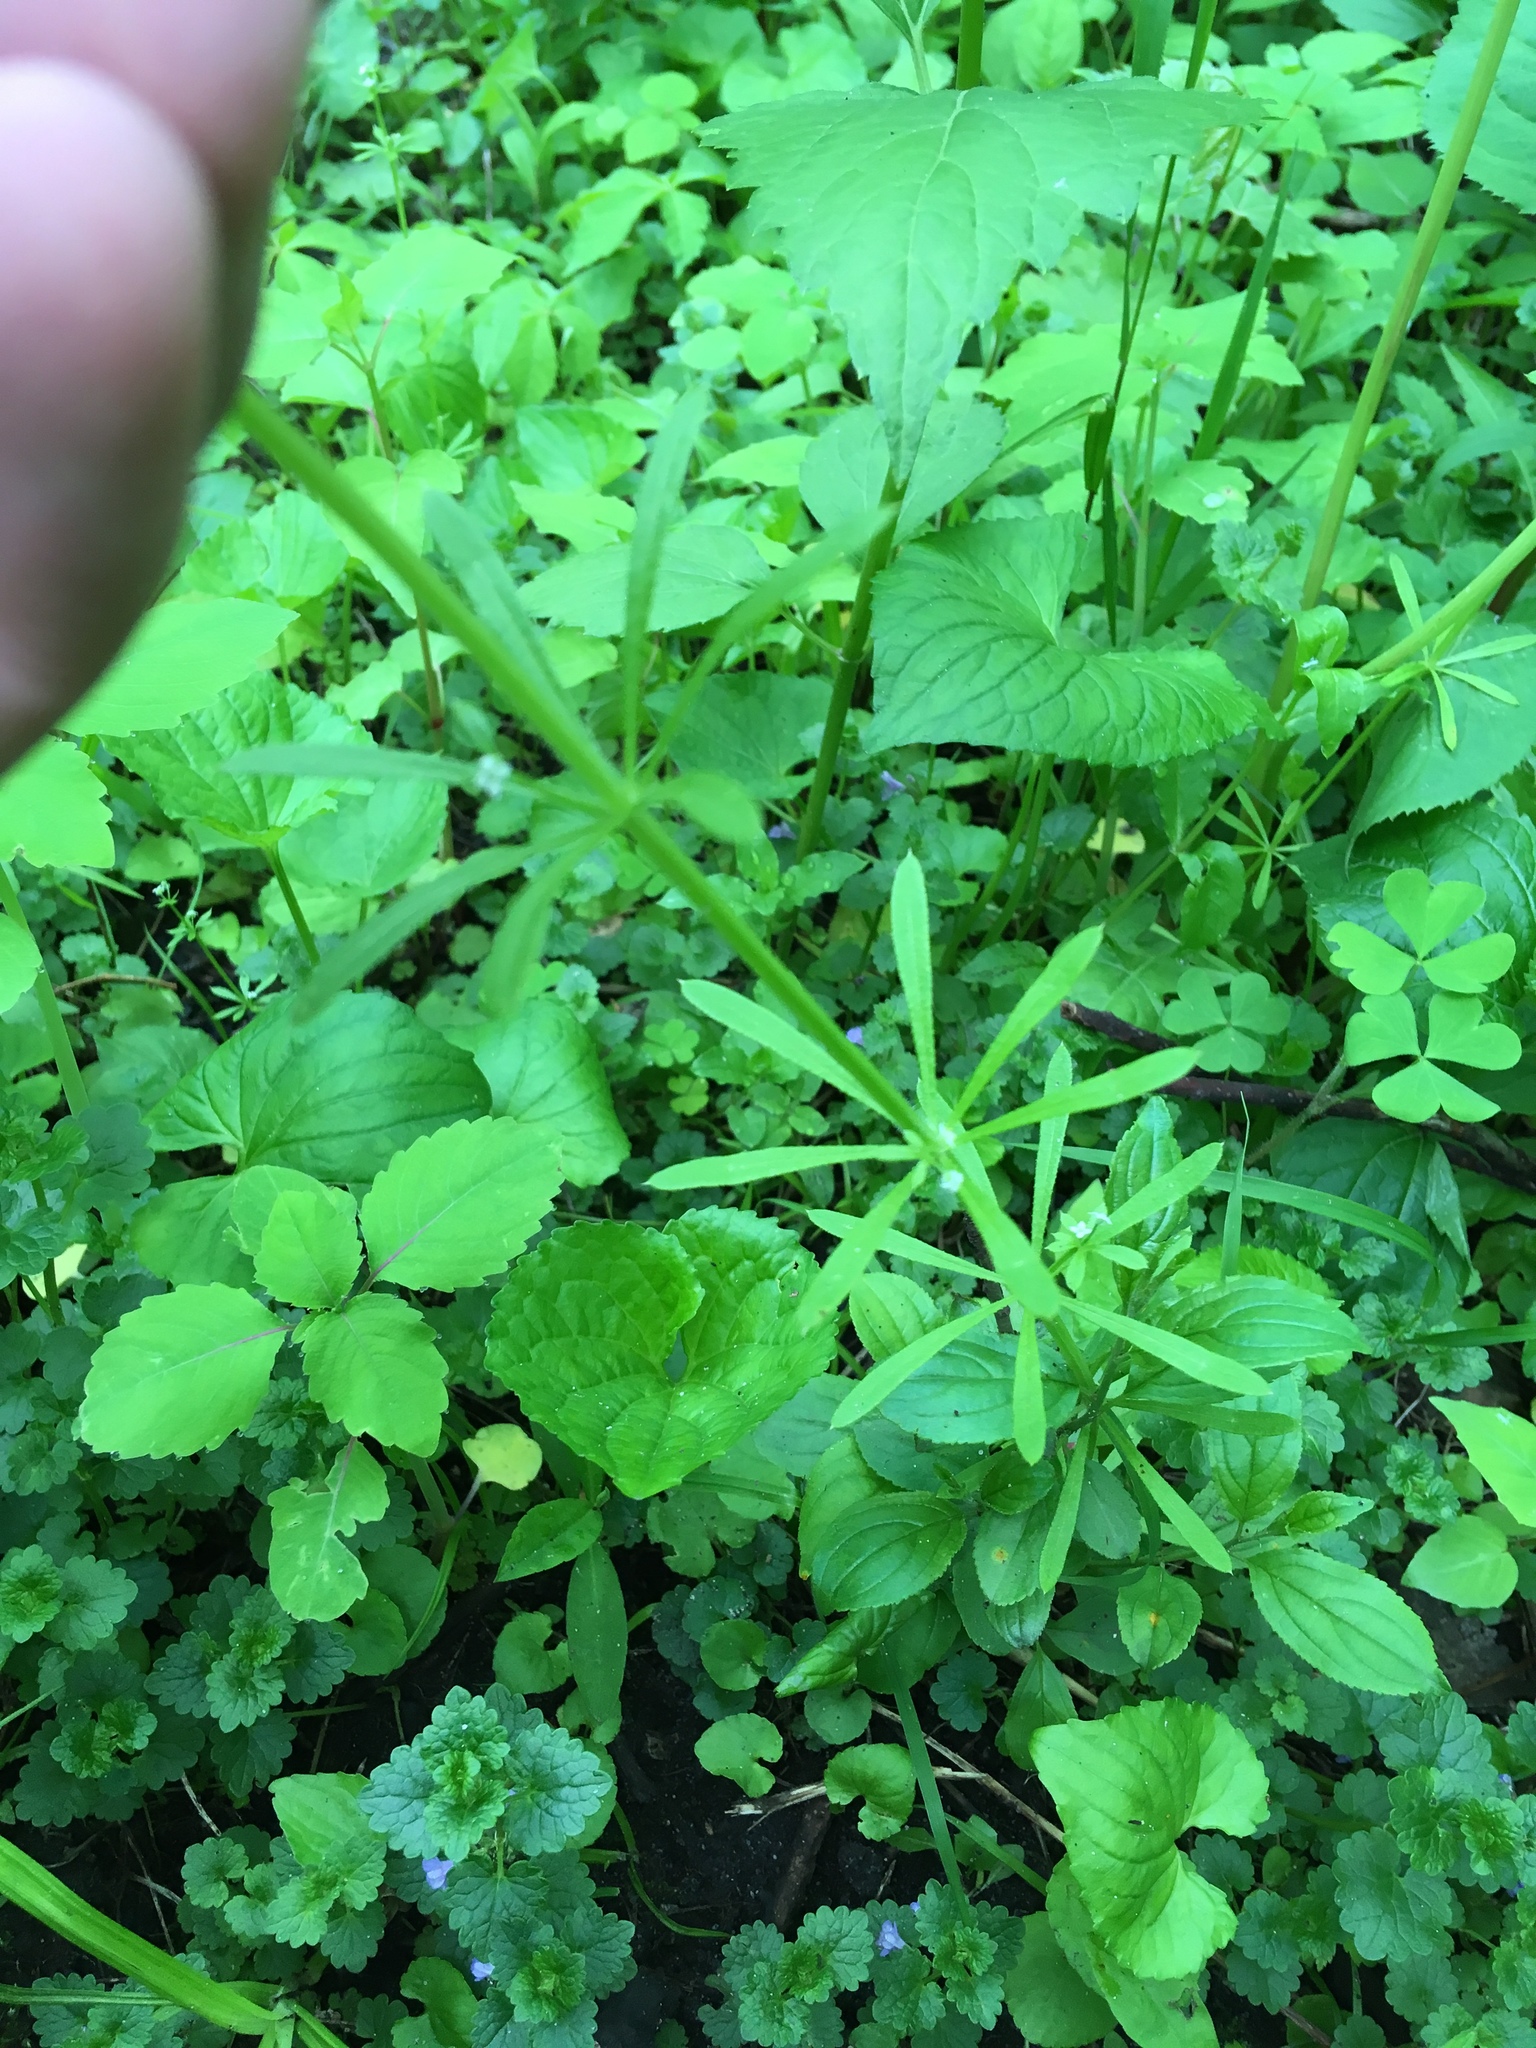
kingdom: Plantae
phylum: Tracheophyta
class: Magnoliopsida
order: Gentianales
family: Rubiaceae
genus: Galium
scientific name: Galium aparine
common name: Cleavers
